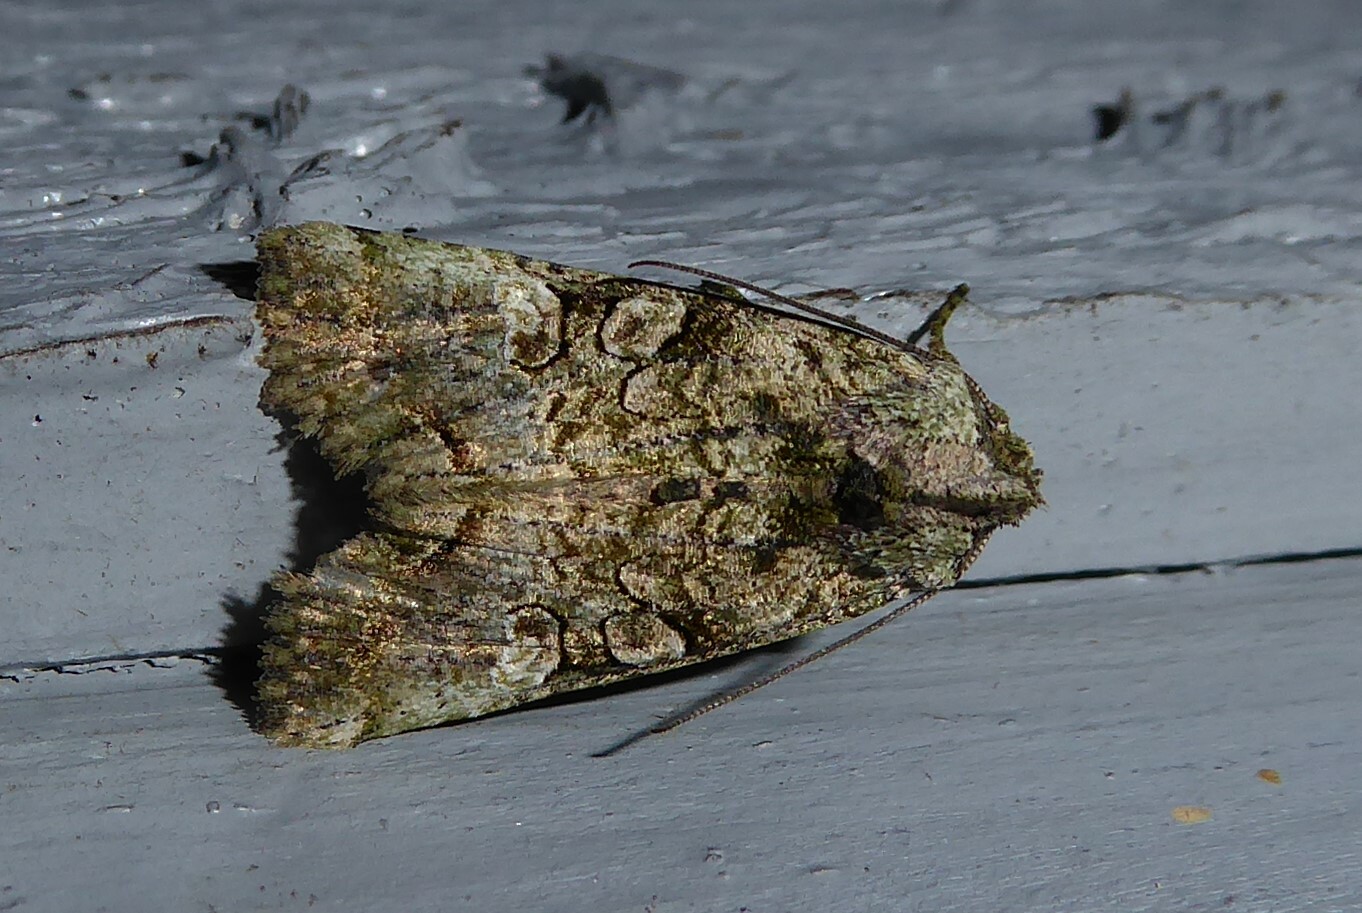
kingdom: Animalia
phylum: Arthropoda
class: Insecta
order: Lepidoptera
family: Noctuidae
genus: Meterana
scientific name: Meterana levis
